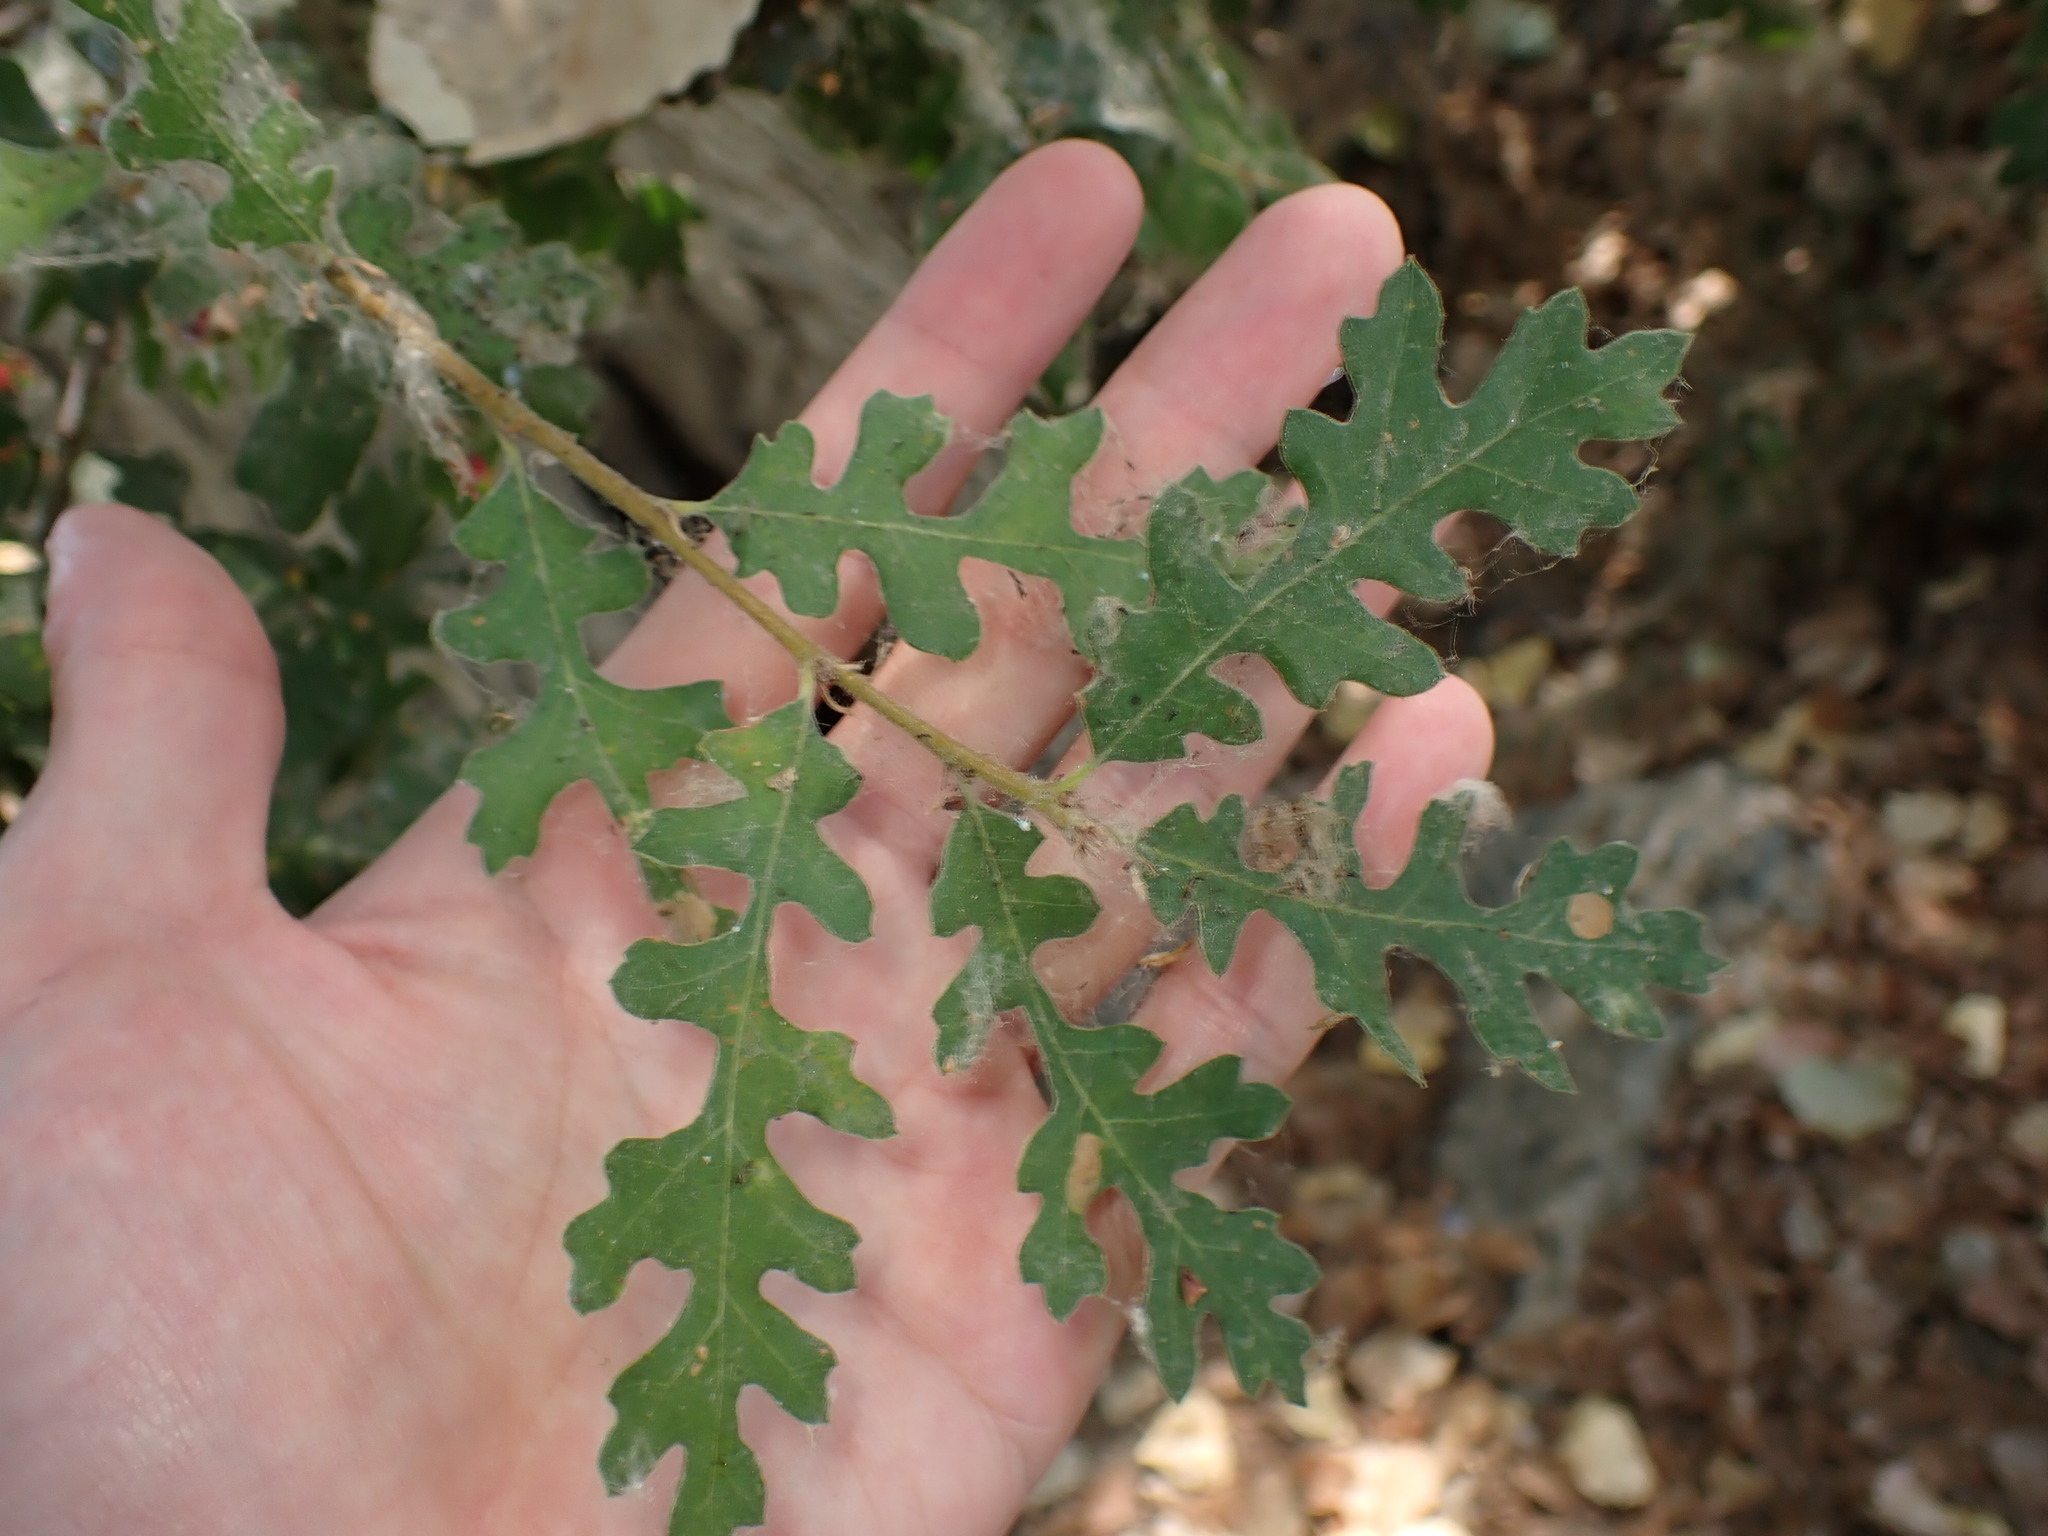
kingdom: Plantae
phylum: Tracheophyta
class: Magnoliopsida
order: Fagales
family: Fagaceae
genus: Quercus
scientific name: Quercus lobata
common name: Valley oak
